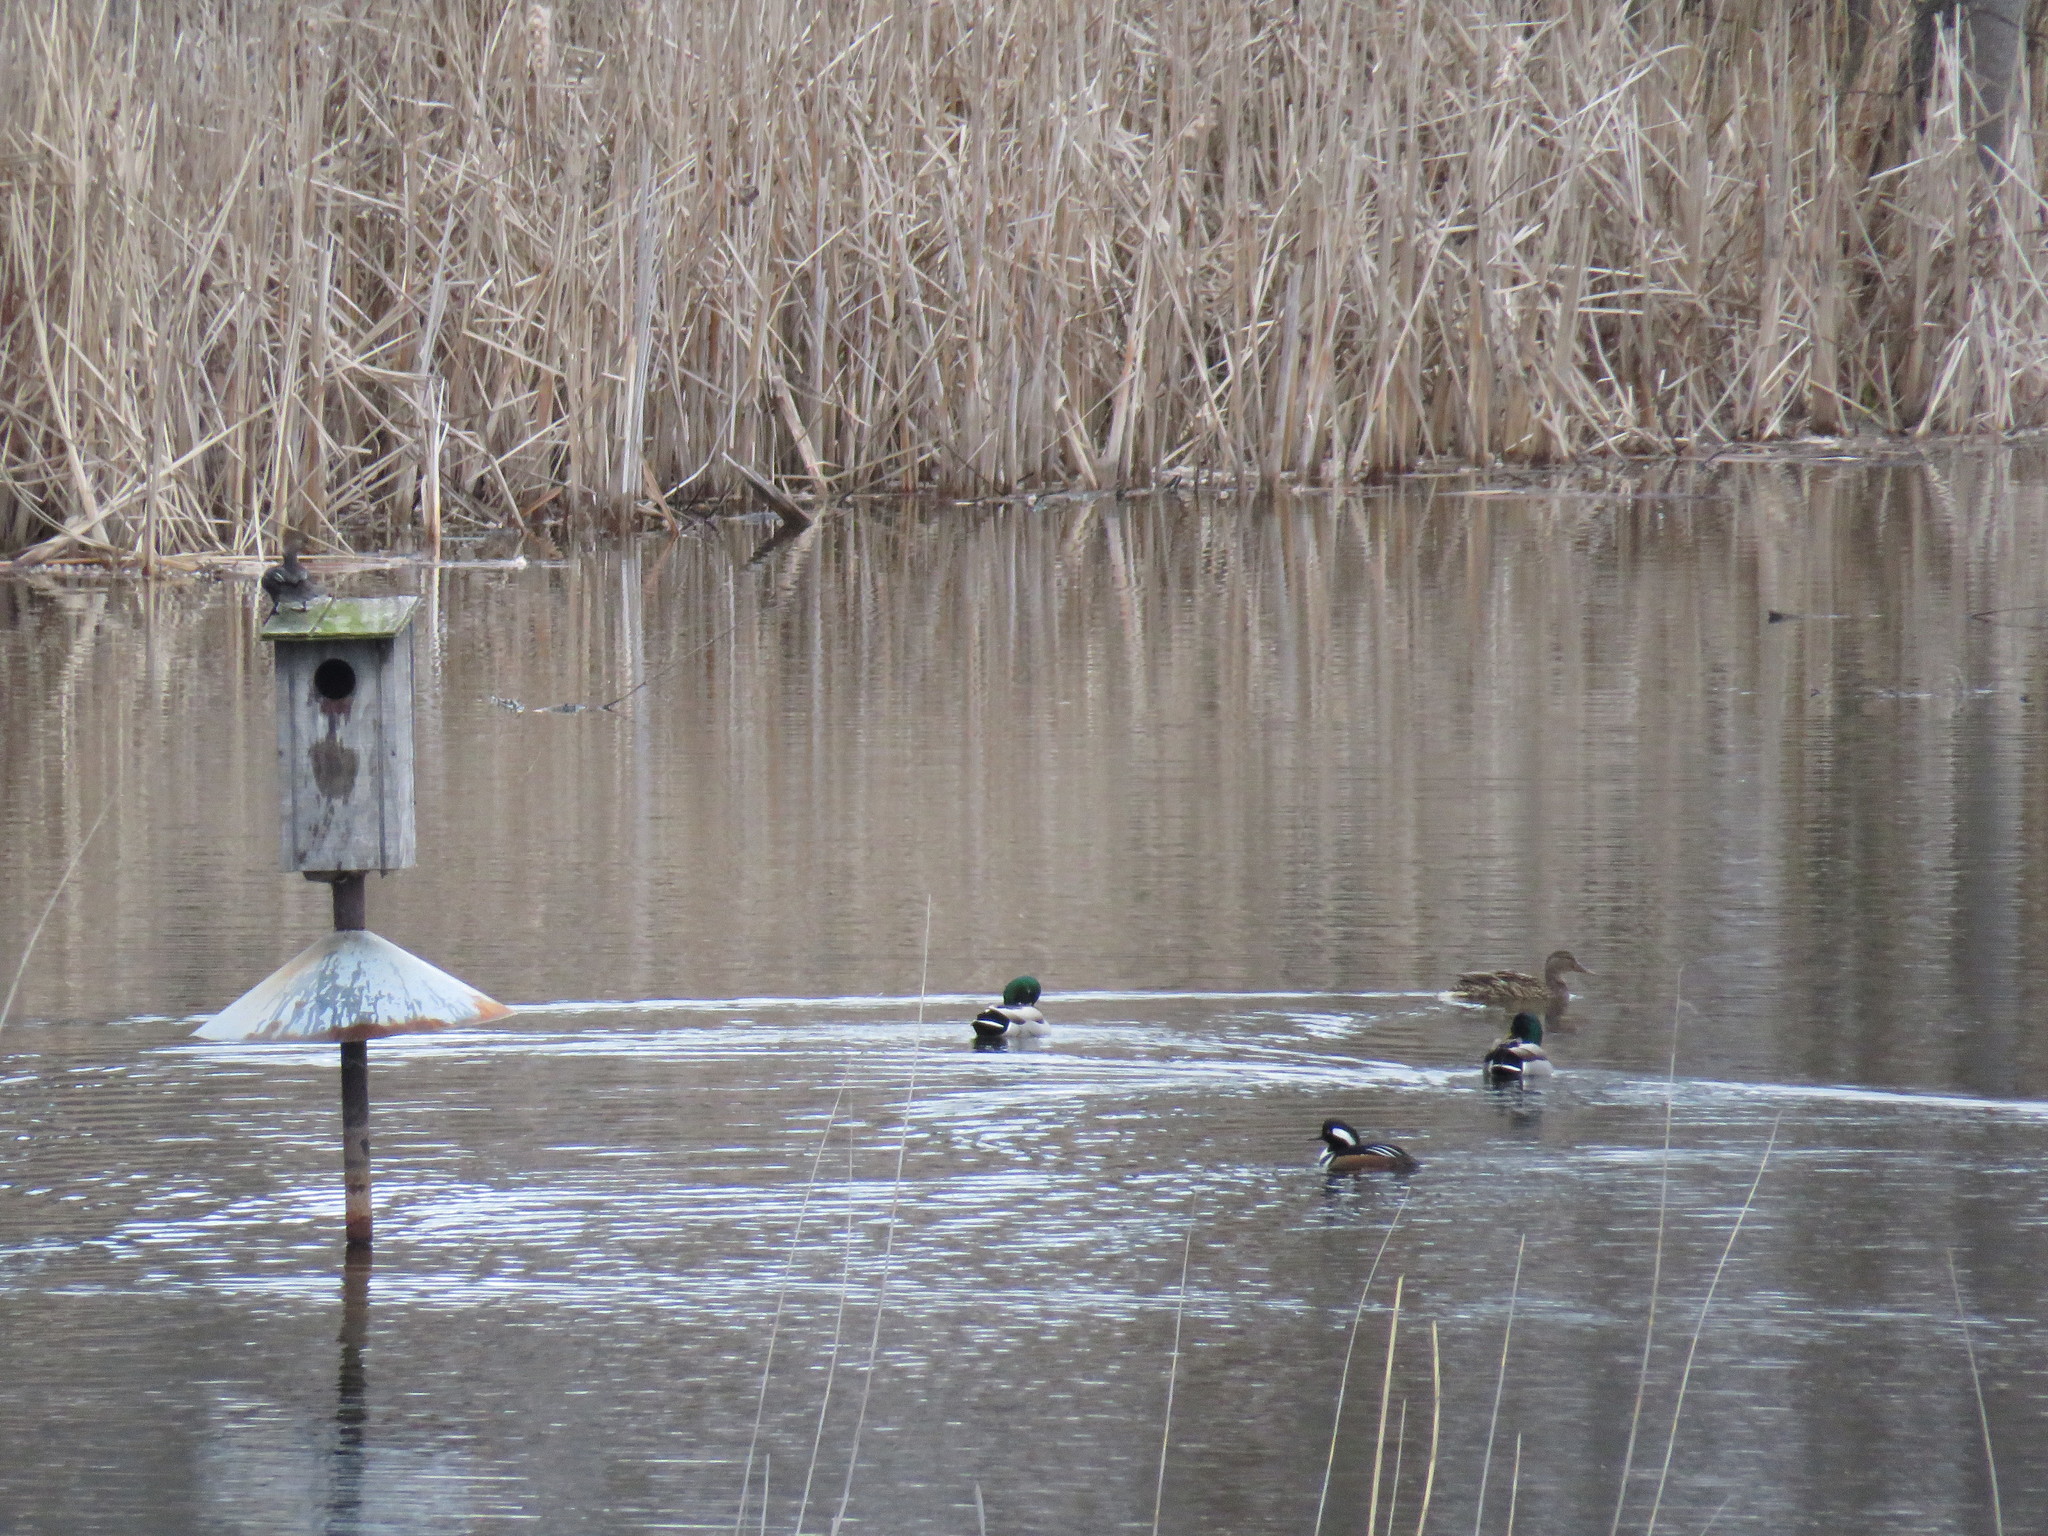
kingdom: Animalia
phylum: Chordata
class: Aves
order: Anseriformes
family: Anatidae
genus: Lophodytes
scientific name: Lophodytes cucullatus
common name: Hooded merganser
